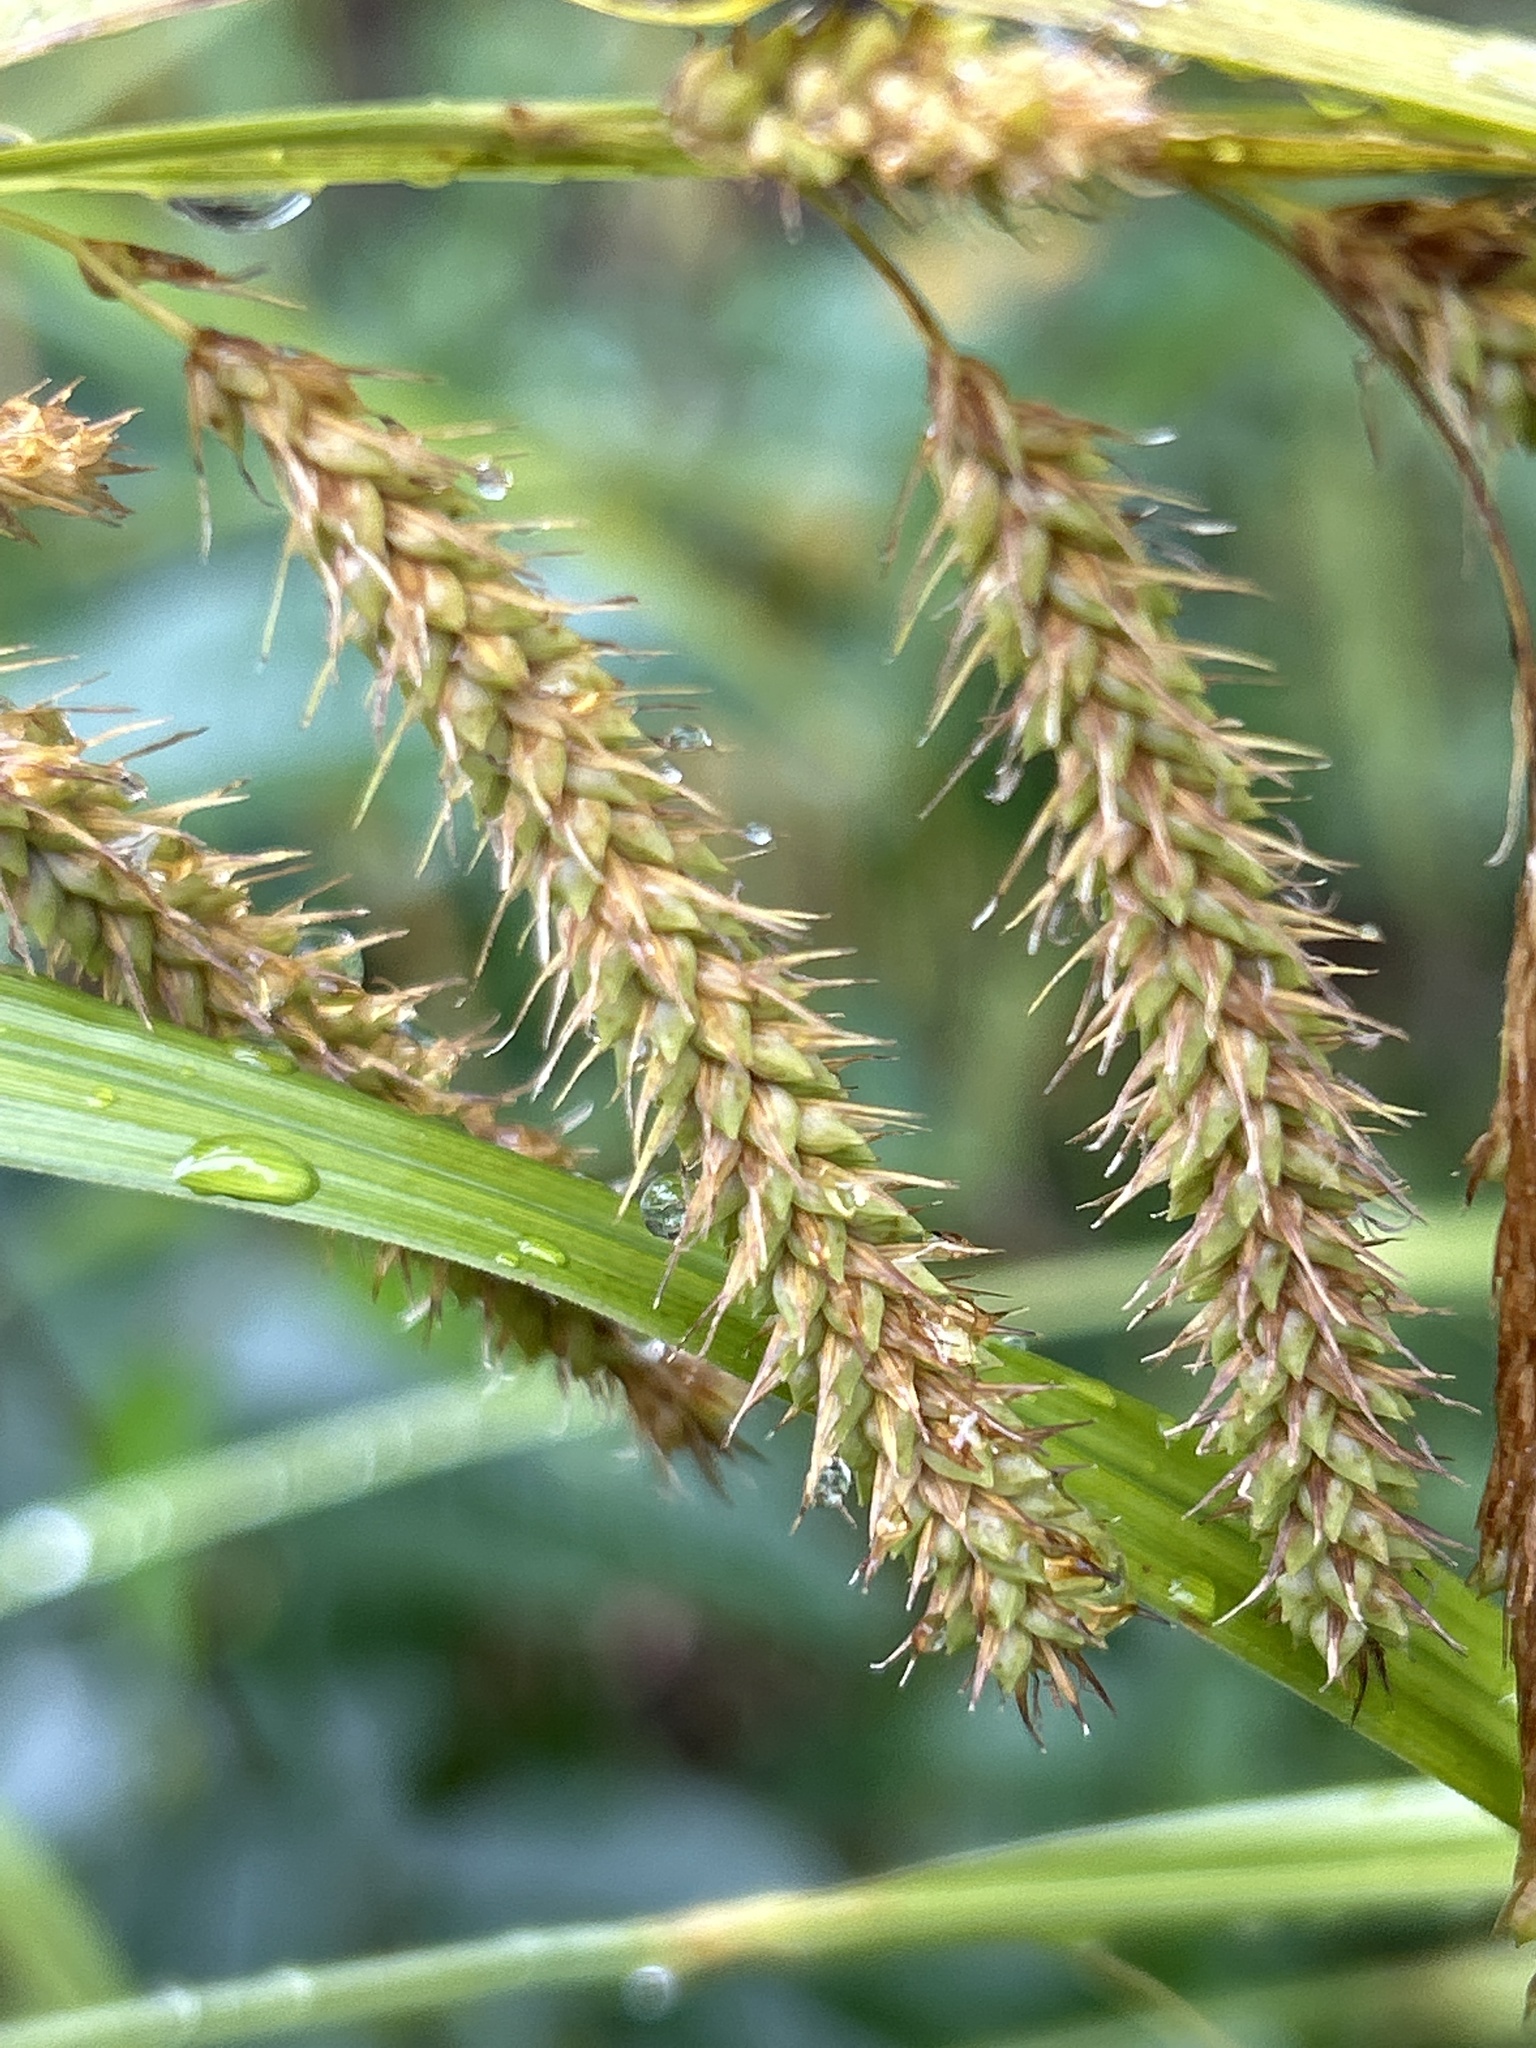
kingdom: Plantae
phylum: Tracheophyta
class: Liliopsida
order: Poales
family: Cyperaceae
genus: Carex
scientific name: Carex gynandra
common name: Nodding sedge
